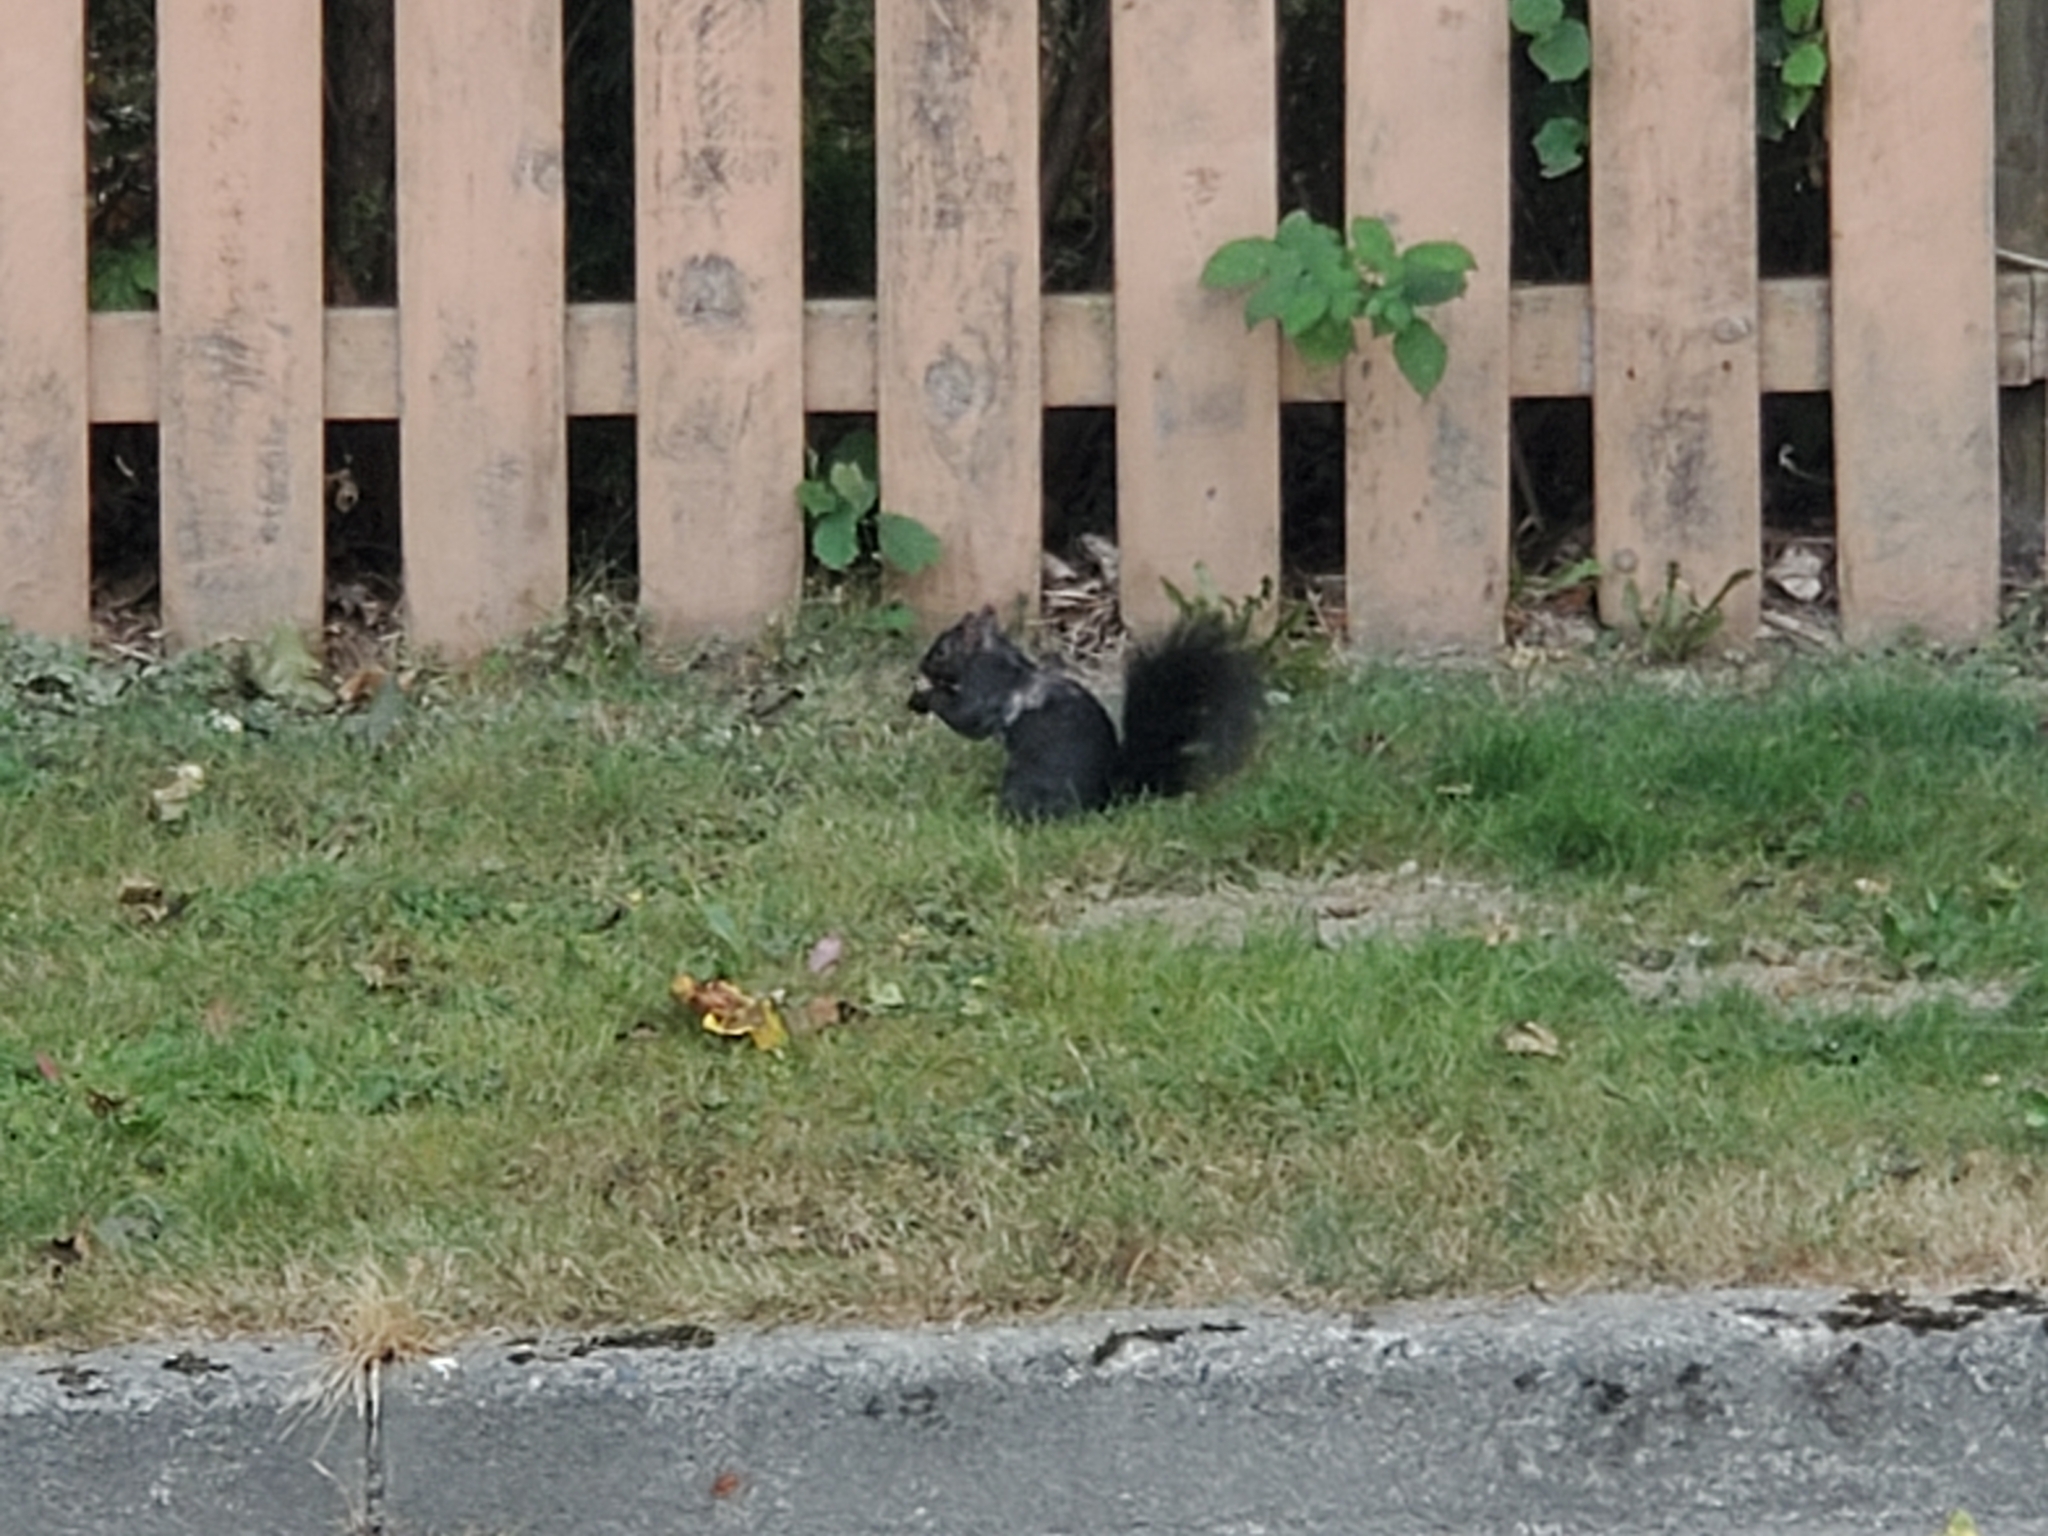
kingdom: Animalia
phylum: Chordata
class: Mammalia
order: Rodentia
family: Sciuridae
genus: Sciurus
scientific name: Sciurus carolinensis
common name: Eastern gray squirrel
